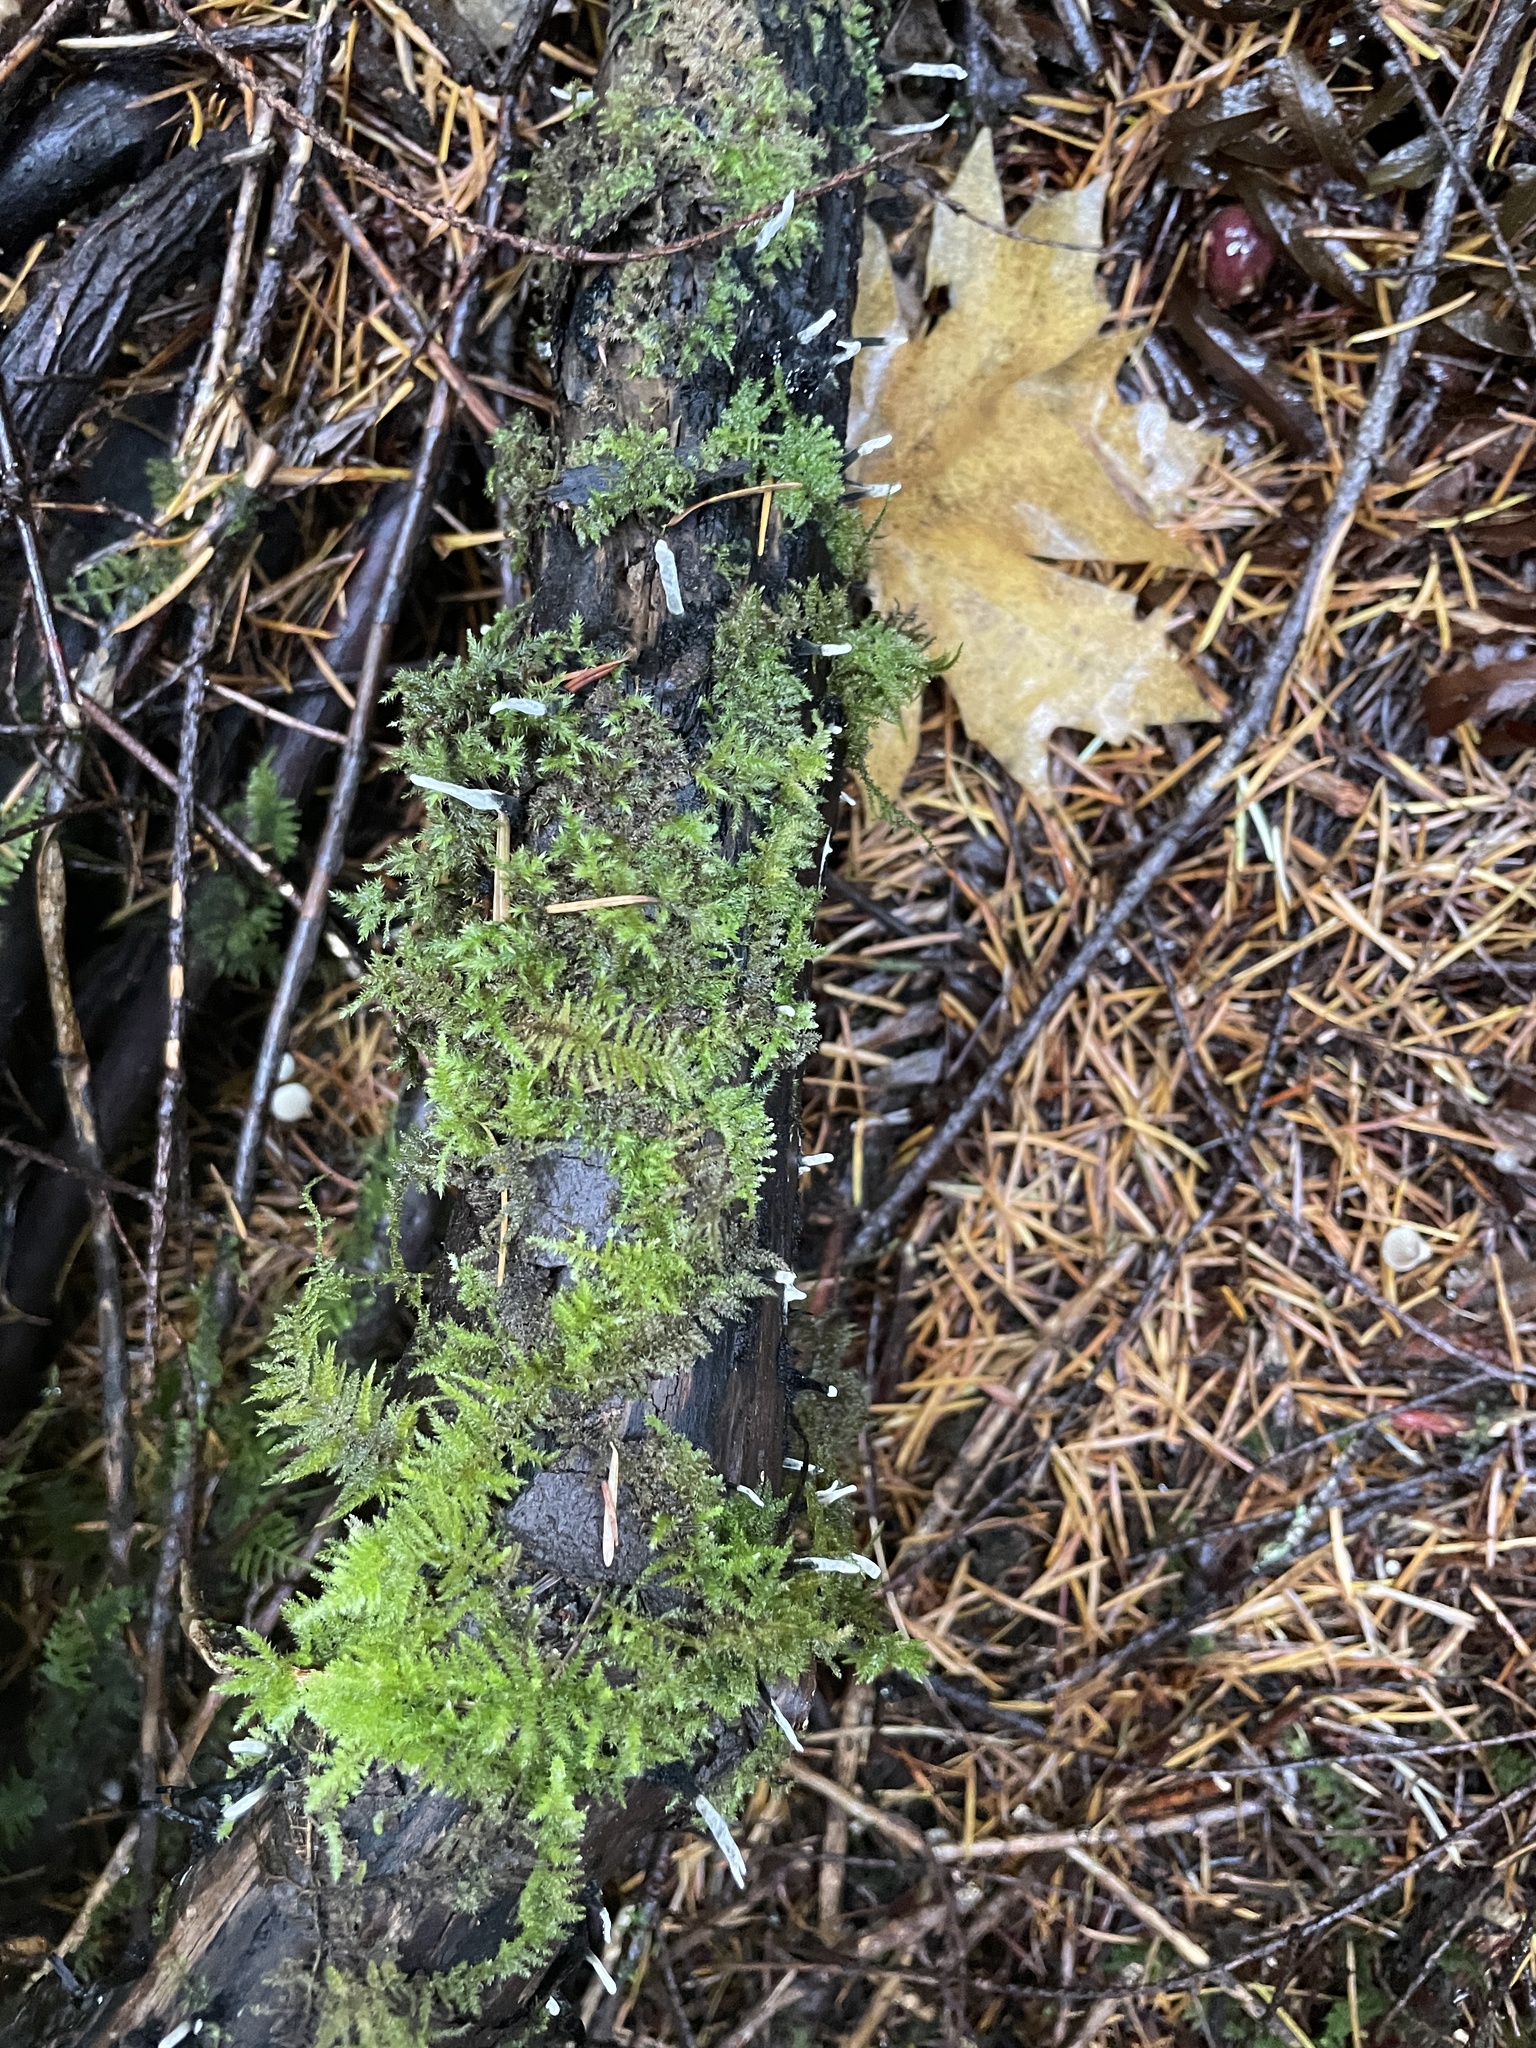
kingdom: Fungi
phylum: Ascomycota
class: Sordariomycetes
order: Xylariales
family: Xylariaceae
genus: Xylaria
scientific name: Xylaria hypoxylon
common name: Candle-snuff fungus
